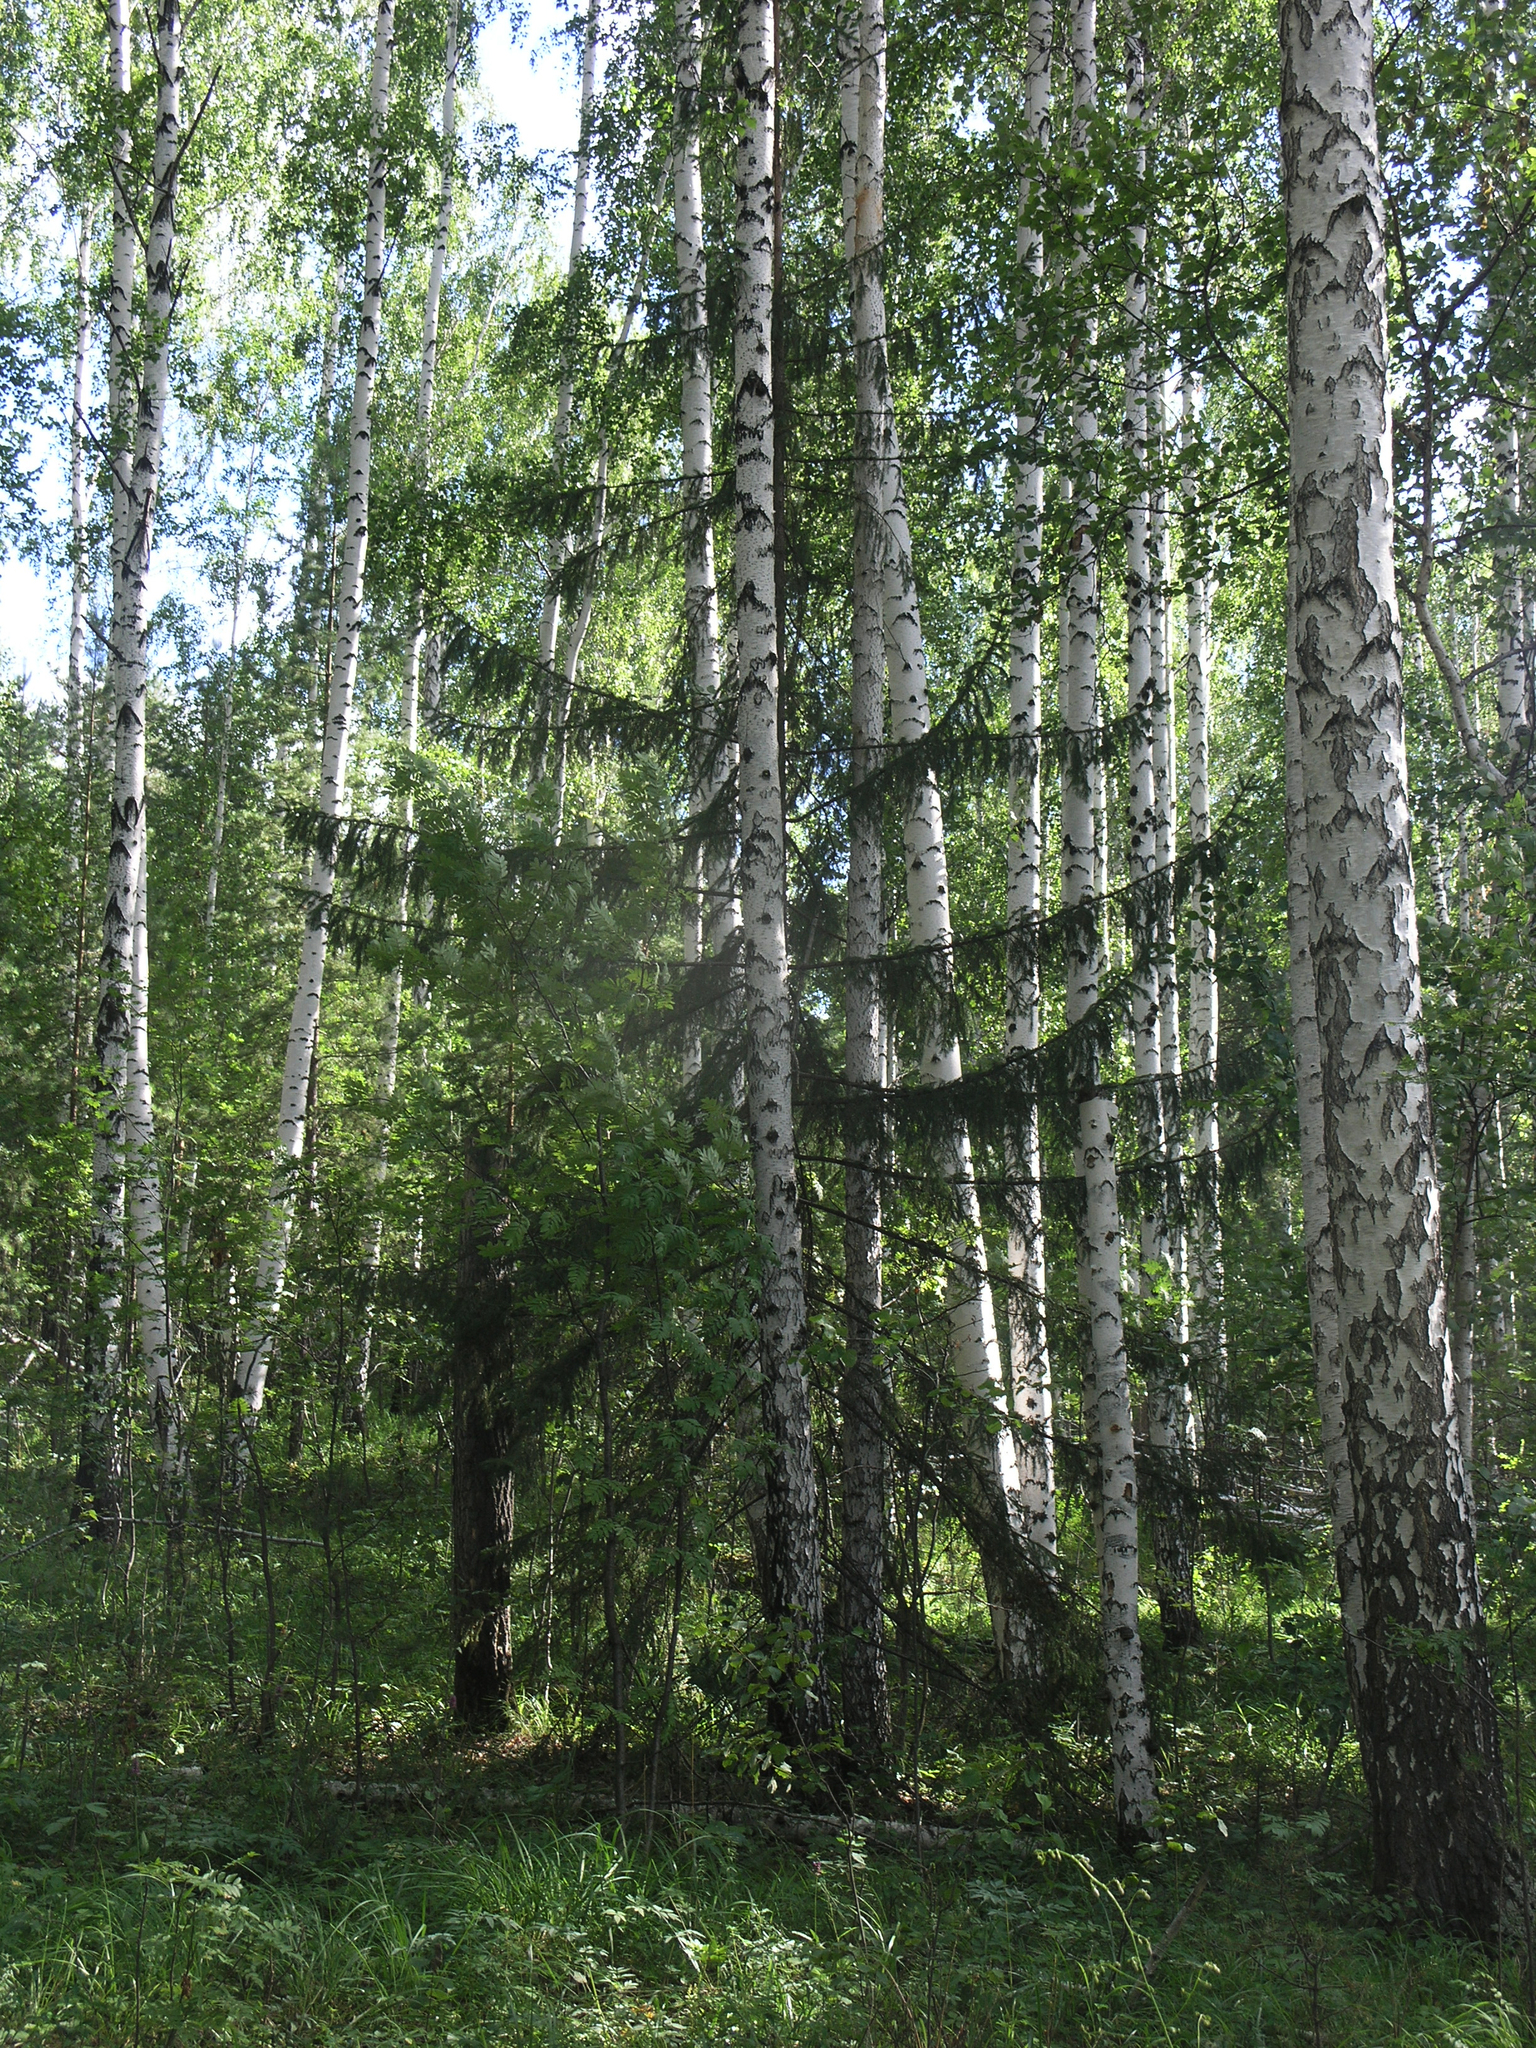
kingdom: Plantae
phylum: Tracheophyta
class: Pinopsida
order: Pinales
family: Pinaceae
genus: Picea
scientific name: Picea
